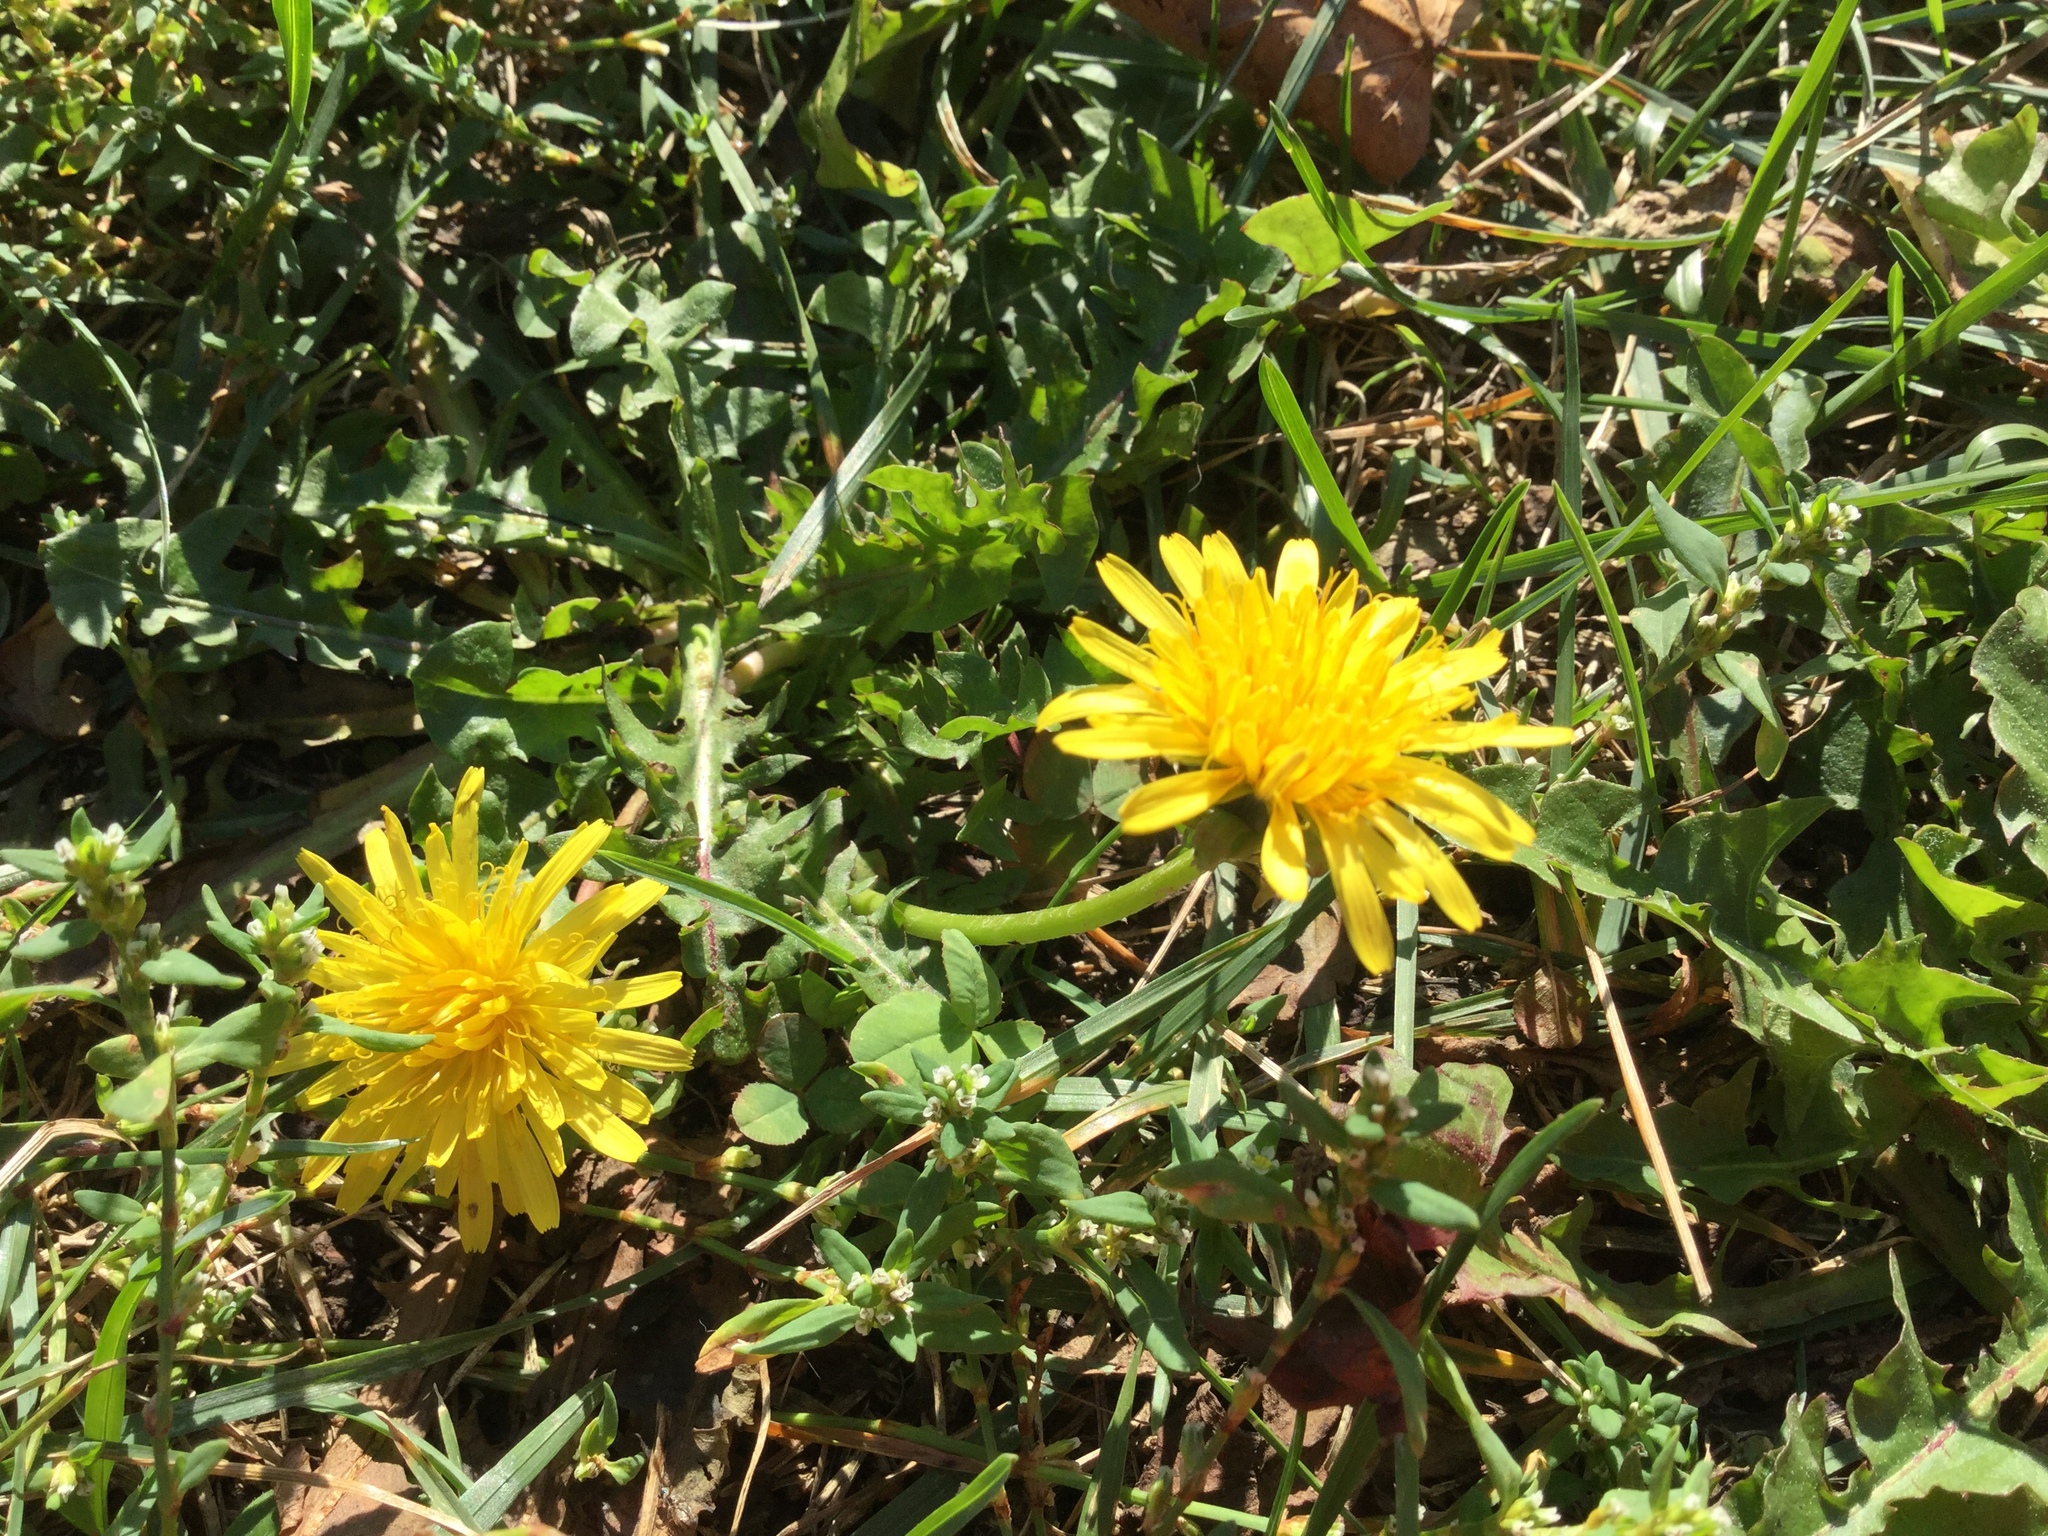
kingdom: Plantae
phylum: Tracheophyta
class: Magnoliopsida
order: Asterales
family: Asteraceae
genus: Taraxacum
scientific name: Taraxacum officinale
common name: Common dandelion
